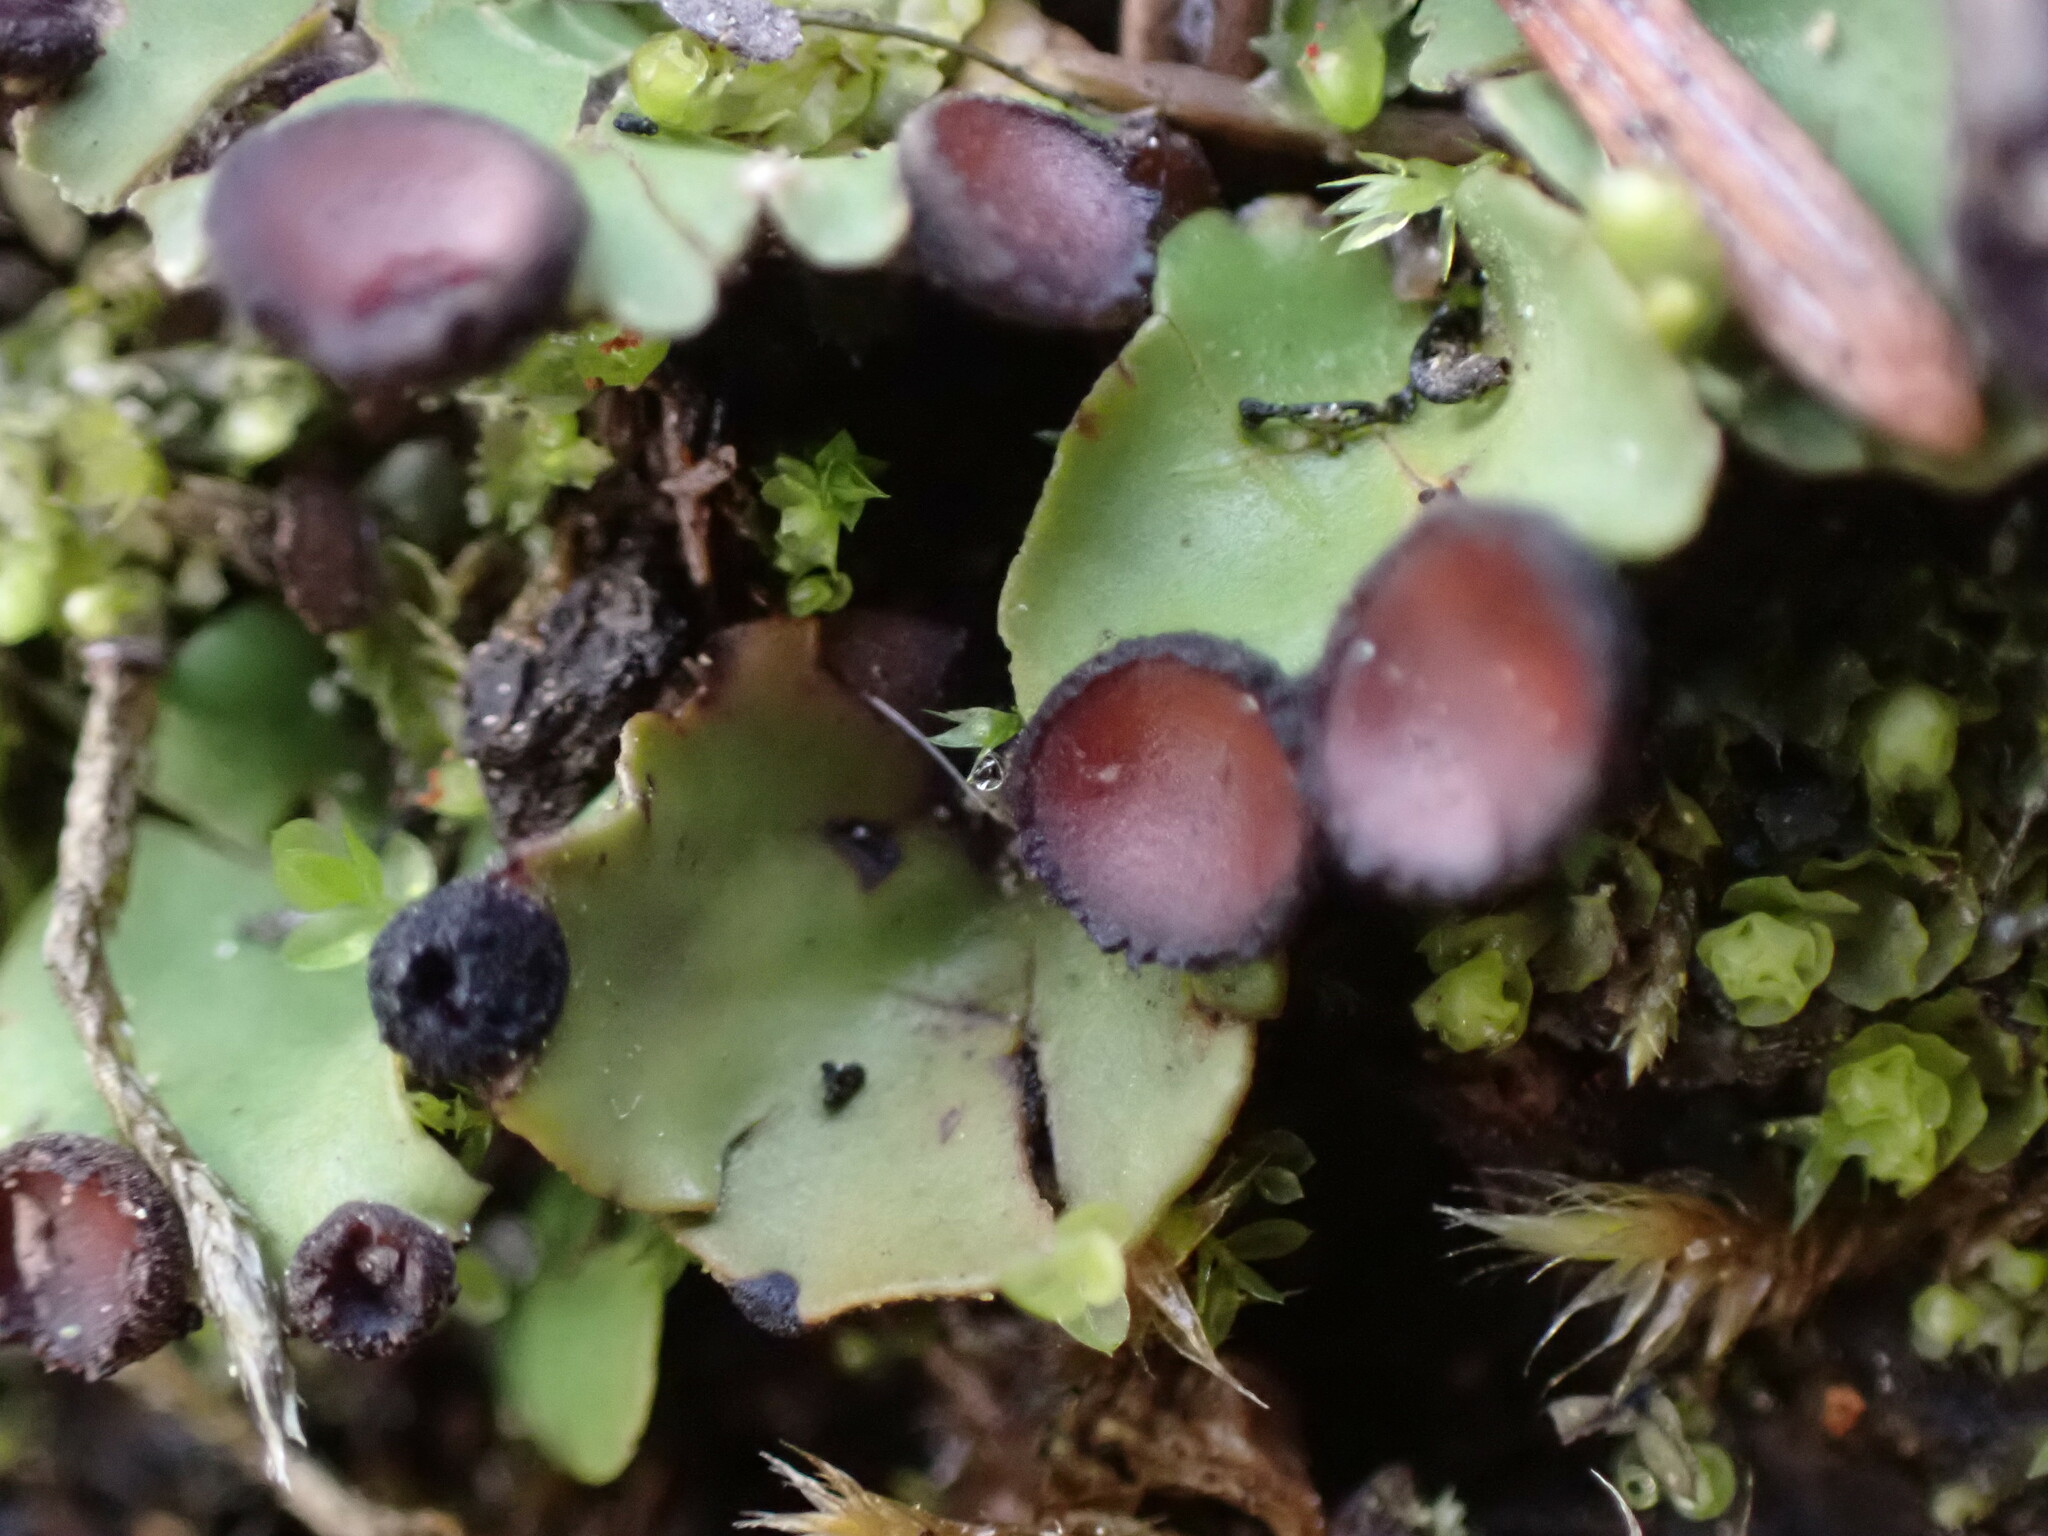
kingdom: Fungi
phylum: Ascomycota
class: Lecanoromycetes
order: Peltigerales
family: Peltigeraceae
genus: Peltigera
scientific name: Peltigera venosa
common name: Pixie gowns lichen
